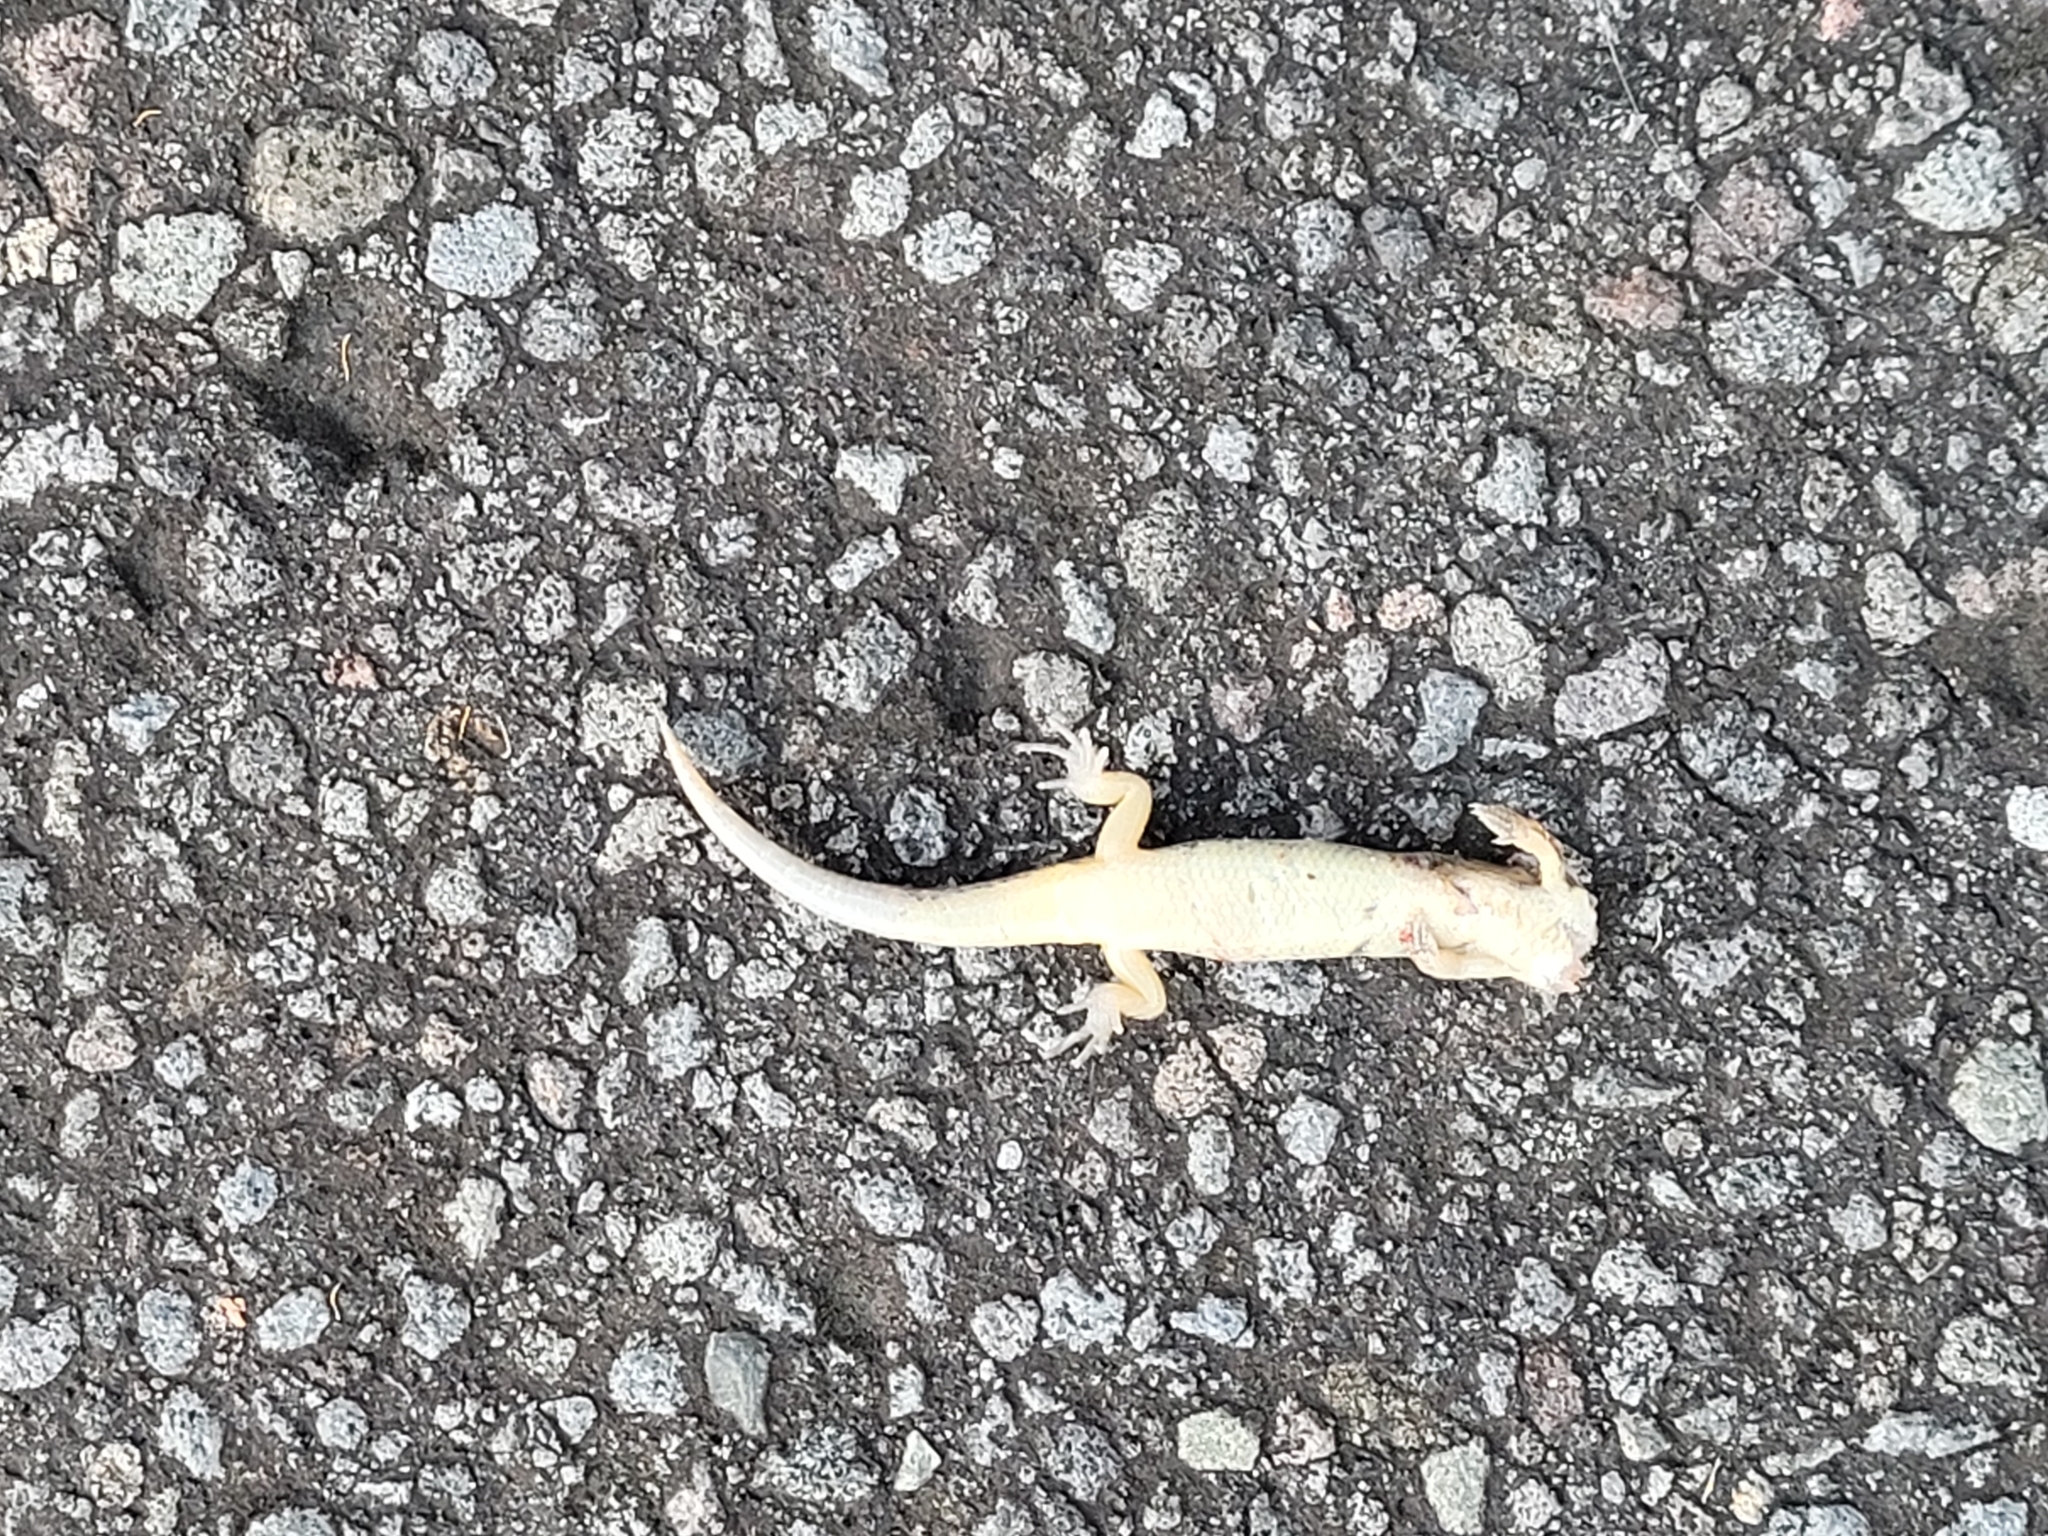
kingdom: Animalia
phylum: Chordata
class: Squamata
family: Scincidae
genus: Oligosoma
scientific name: Oligosoma aeneum
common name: Copper skink
